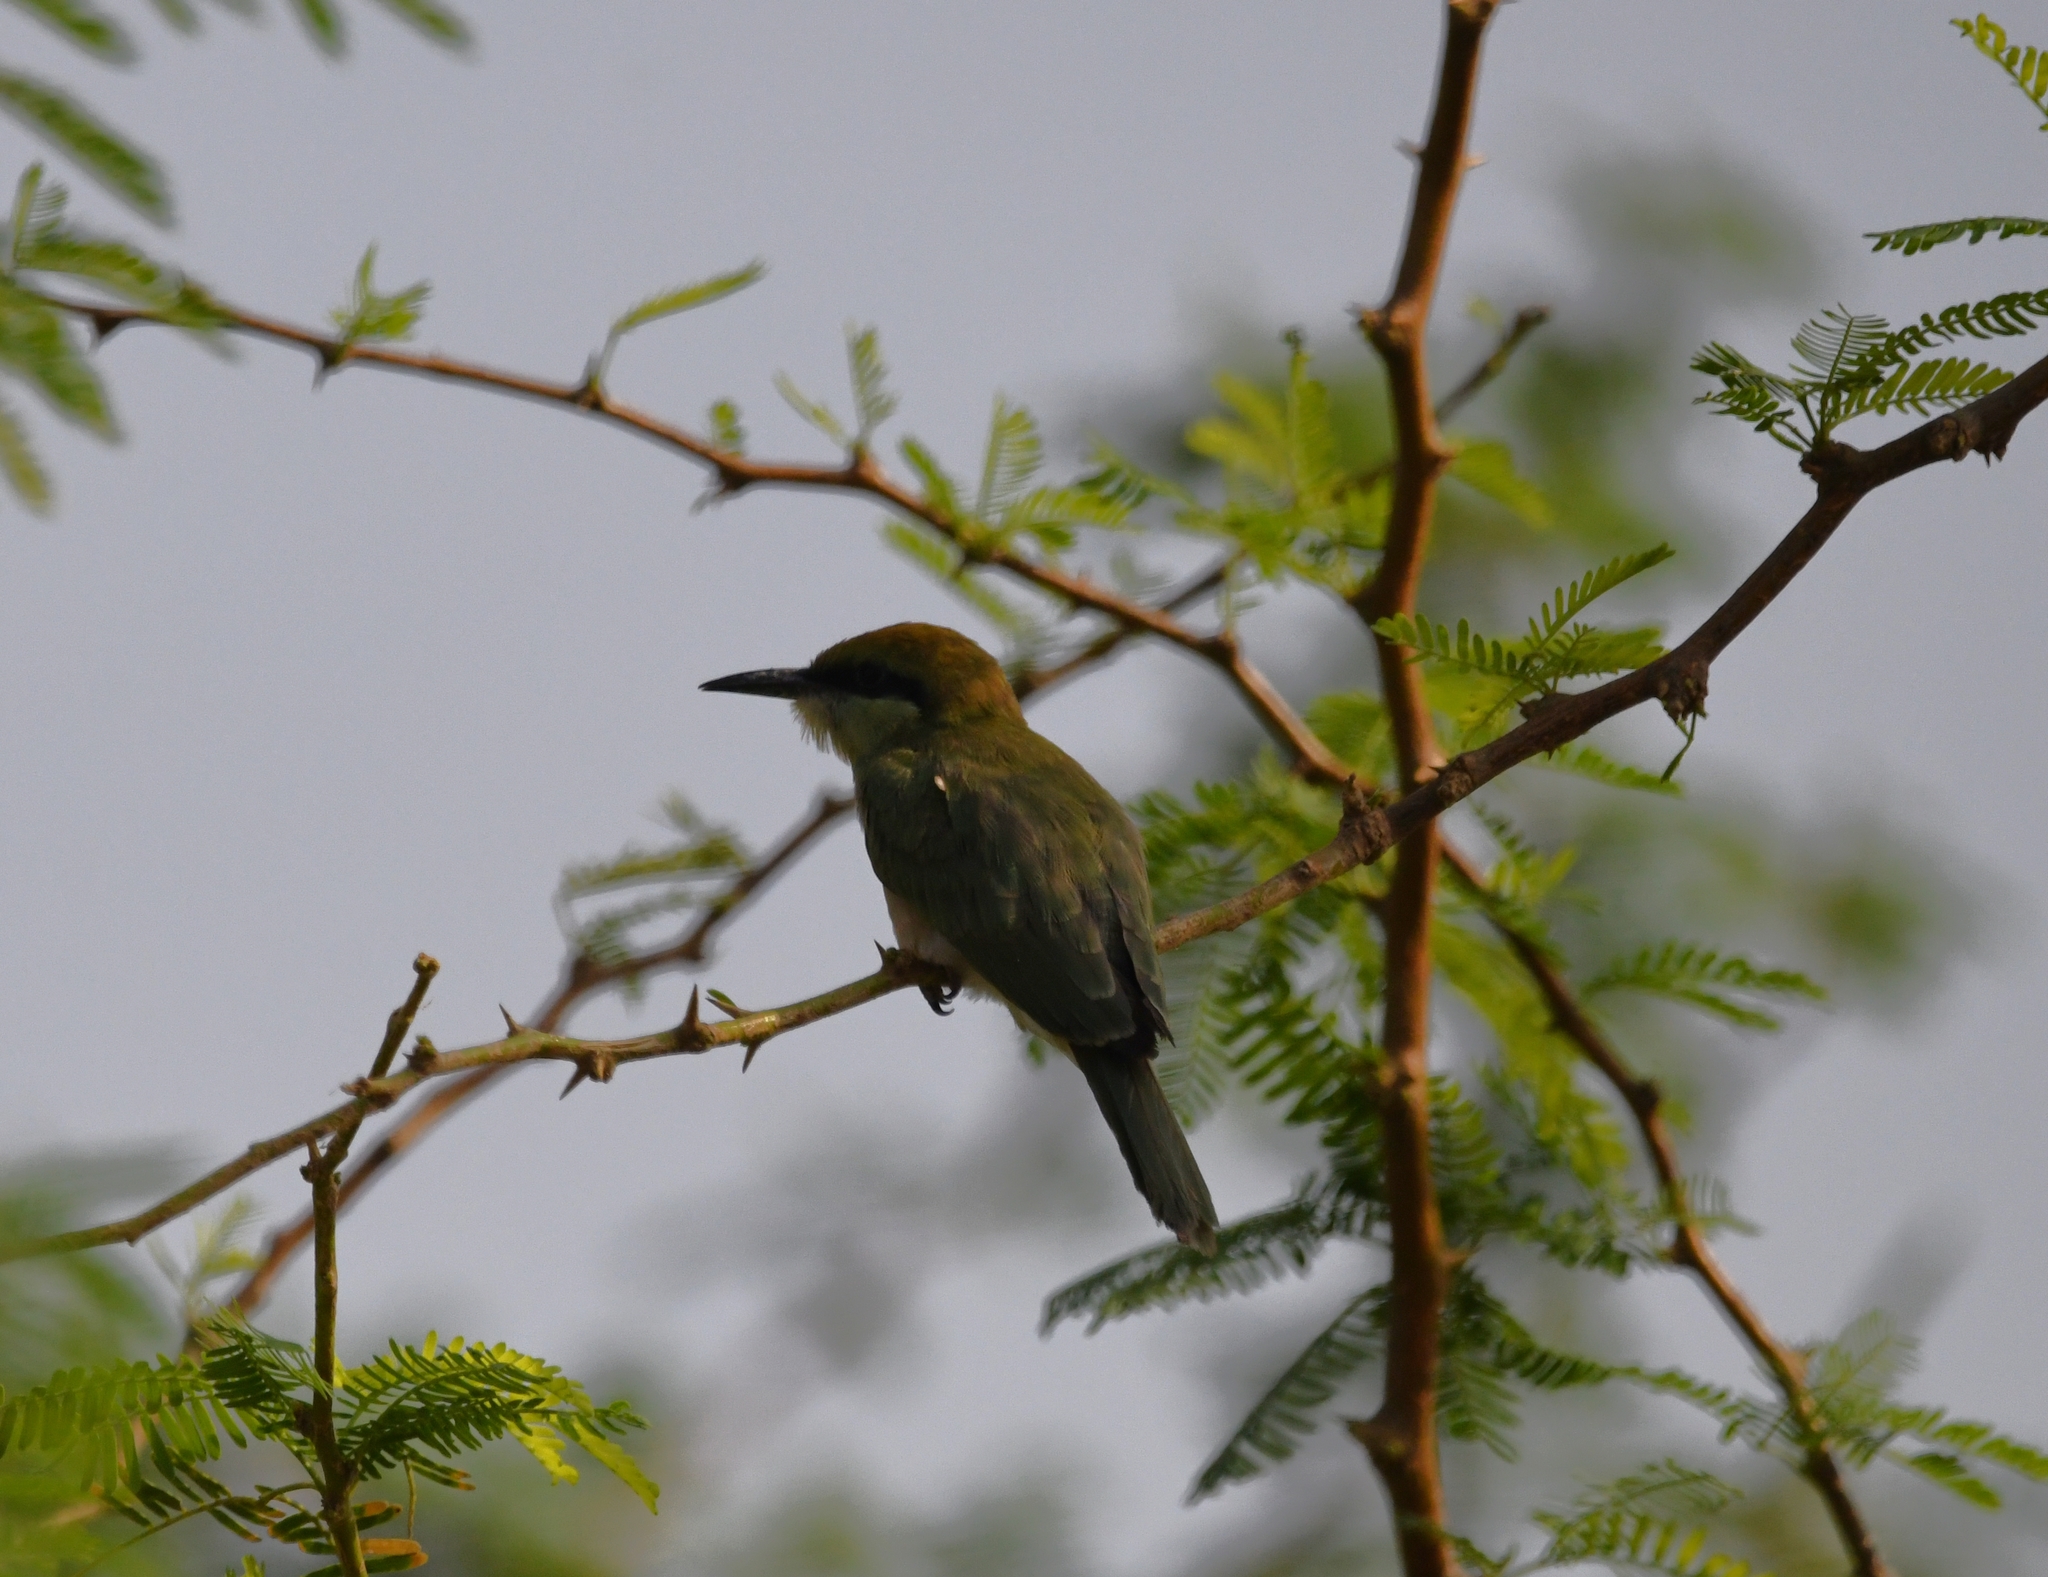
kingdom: Animalia
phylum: Chordata
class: Aves
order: Coraciiformes
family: Meropidae
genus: Merops
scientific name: Merops orientalis
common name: Green bee-eater
